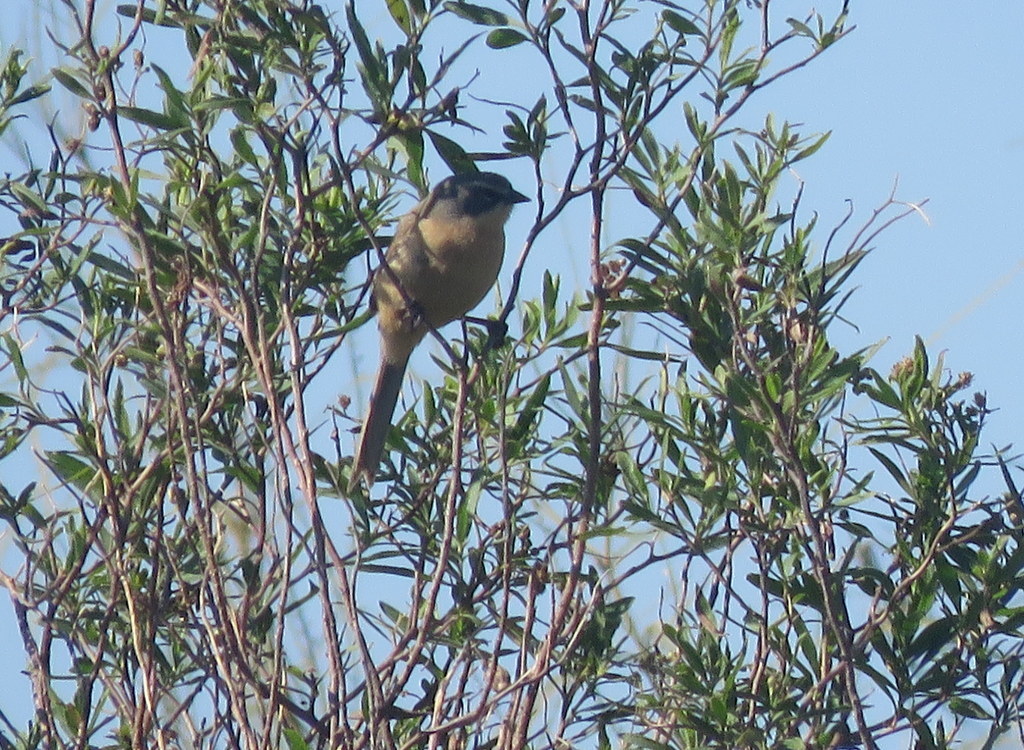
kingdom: Animalia
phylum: Chordata
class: Aves
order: Passeriformes
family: Thraupidae
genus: Donacospiza
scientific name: Donacospiza albifrons
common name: Long-tailed reed finch
